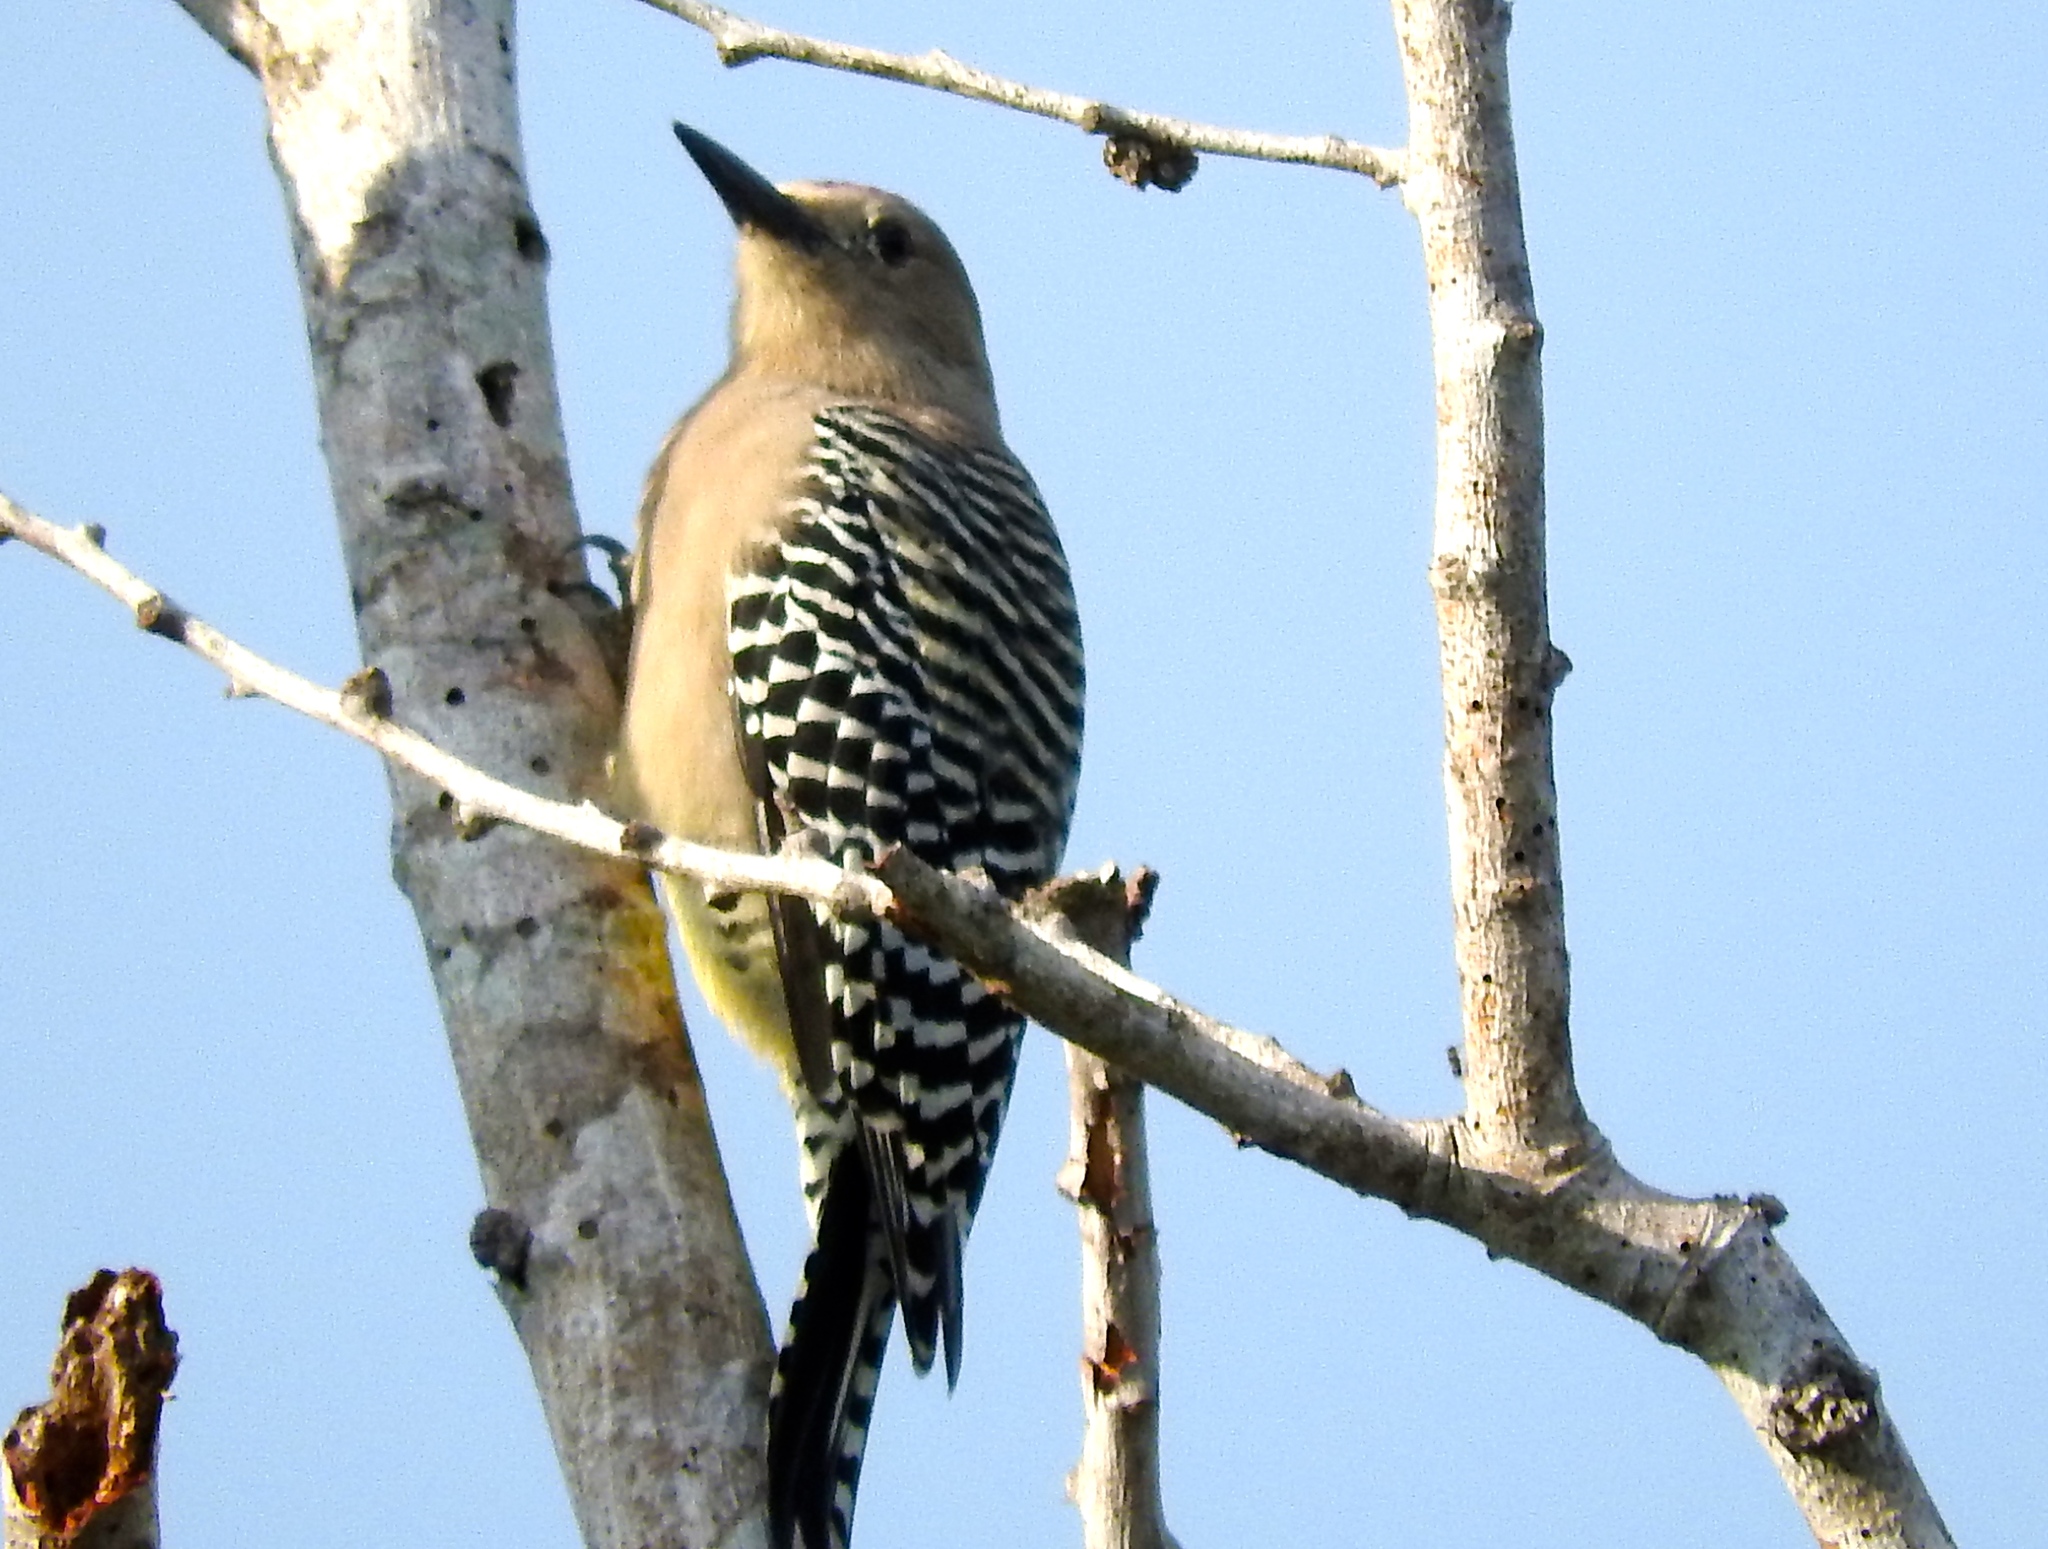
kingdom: Animalia
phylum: Chordata
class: Aves
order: Piciformes
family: Picidae
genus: Melanerpes
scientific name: Melanerpes uropygialis
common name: Gila woodpecker
